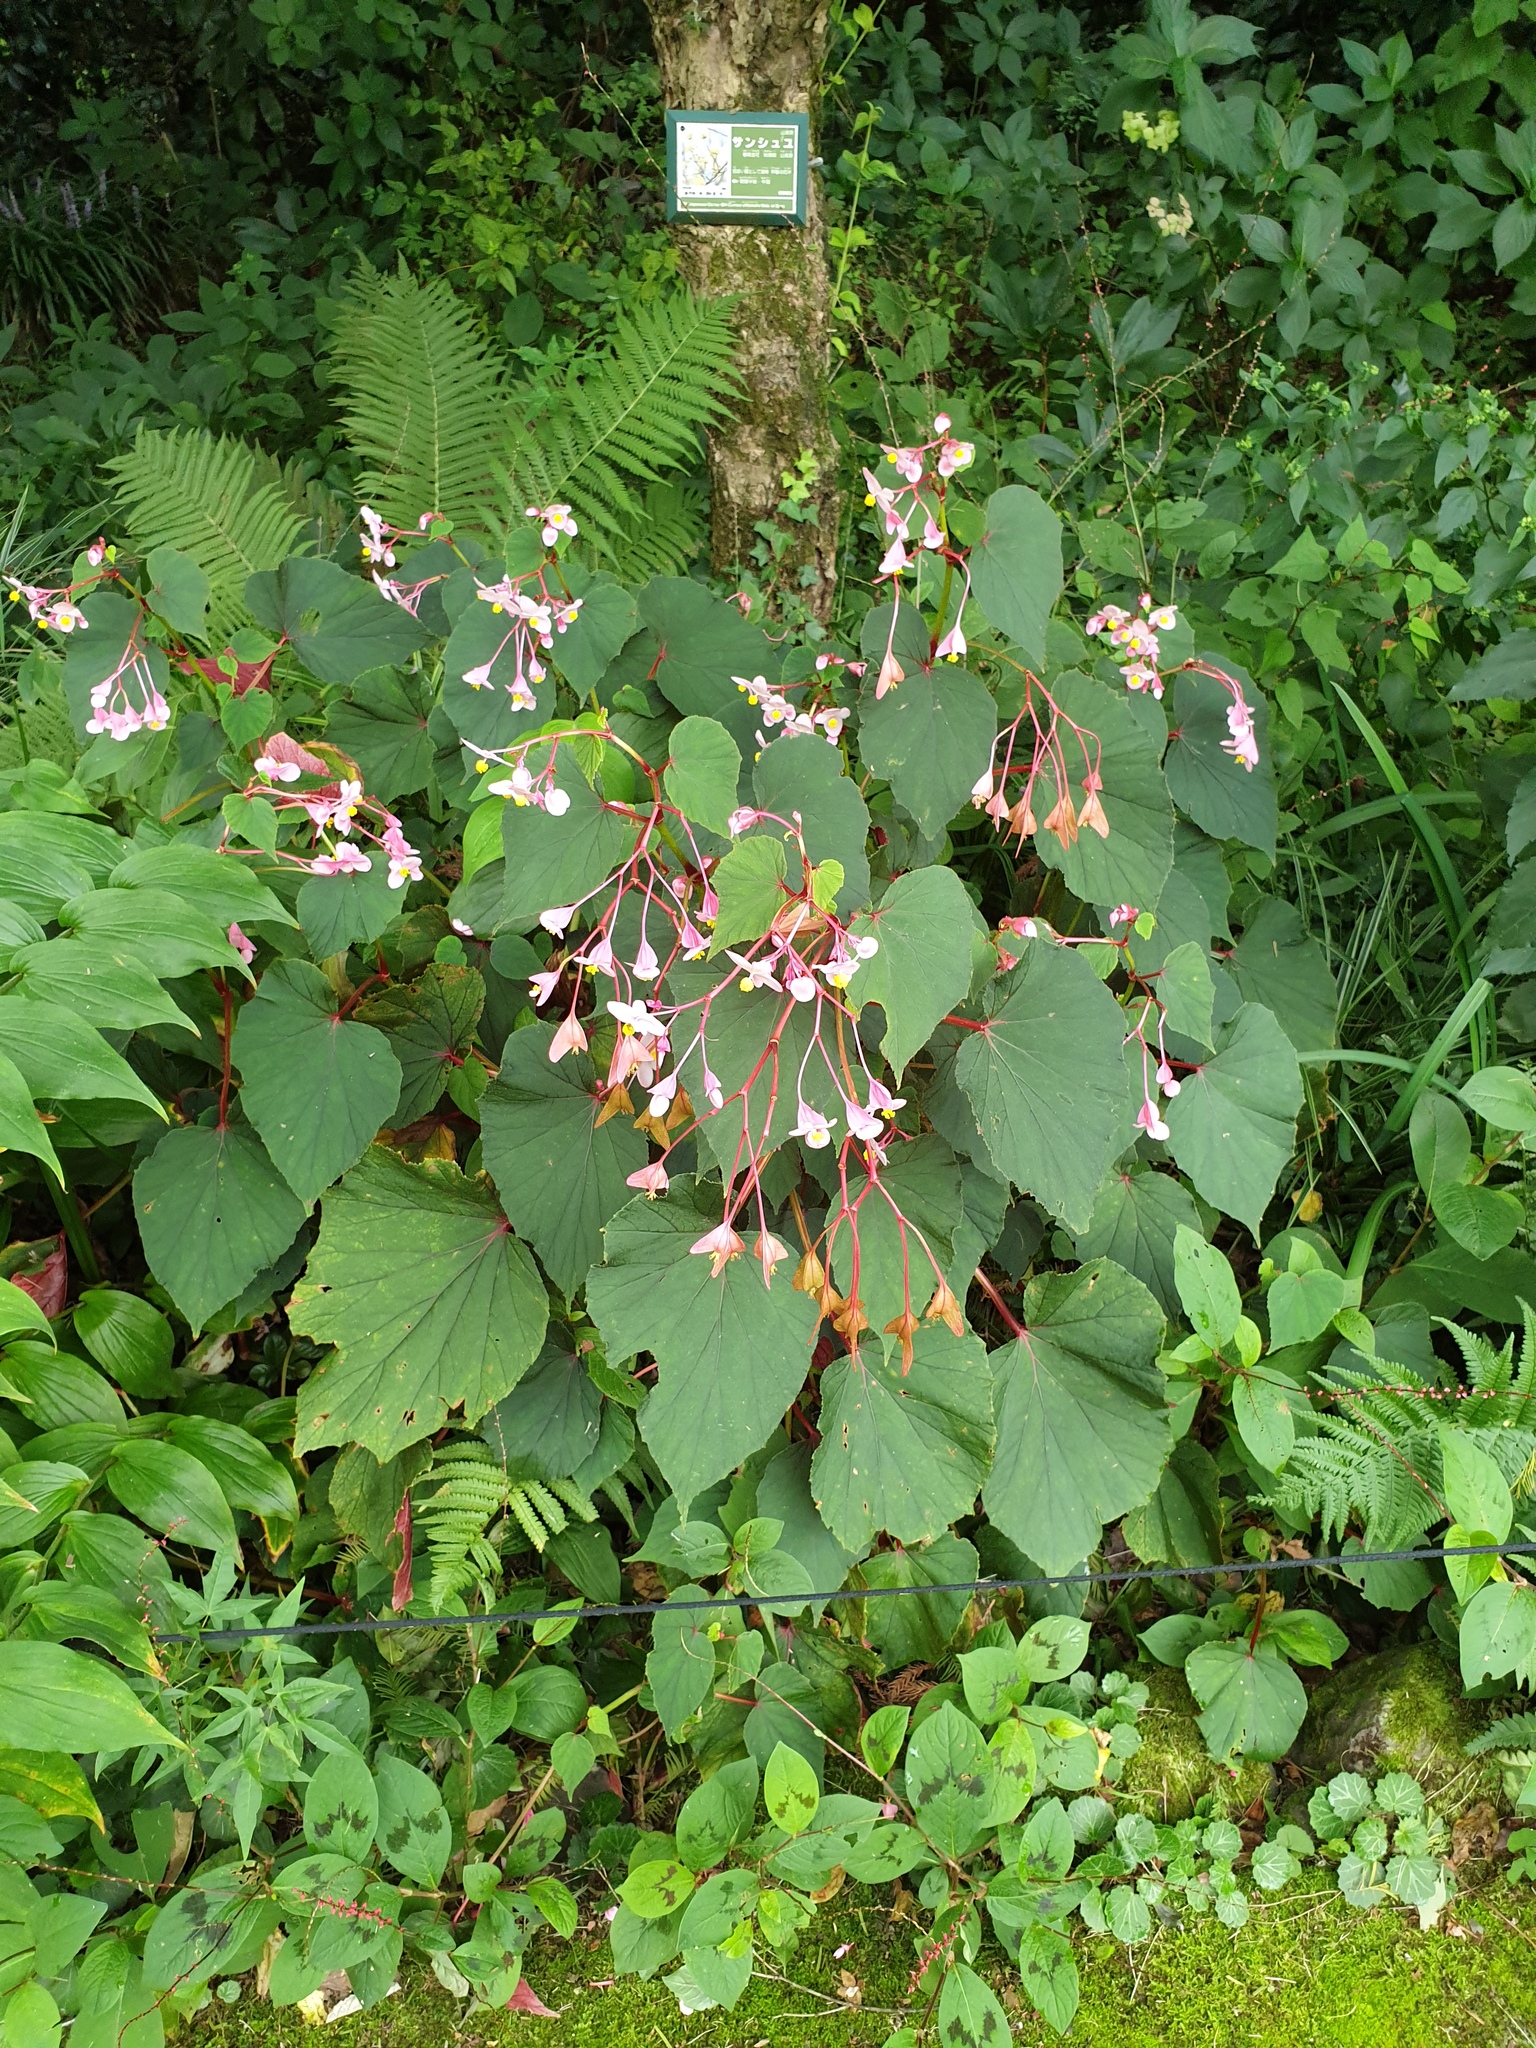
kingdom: Plantae
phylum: Tracheophyta
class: Magnoliopsida
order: Cucurbitales
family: Begoniaceae
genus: Begonia
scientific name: Begonia grandis
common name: Hardy begonia
